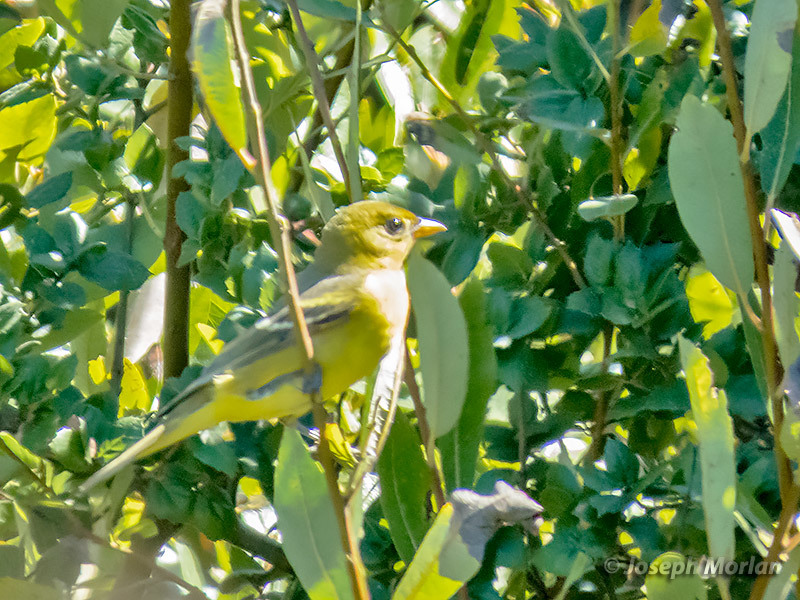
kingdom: Animalia
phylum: Chordata
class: Aves
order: Passeriformes
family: Cardinalidae
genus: Piranga
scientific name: Piranga ludoviciana
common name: Western tanager
